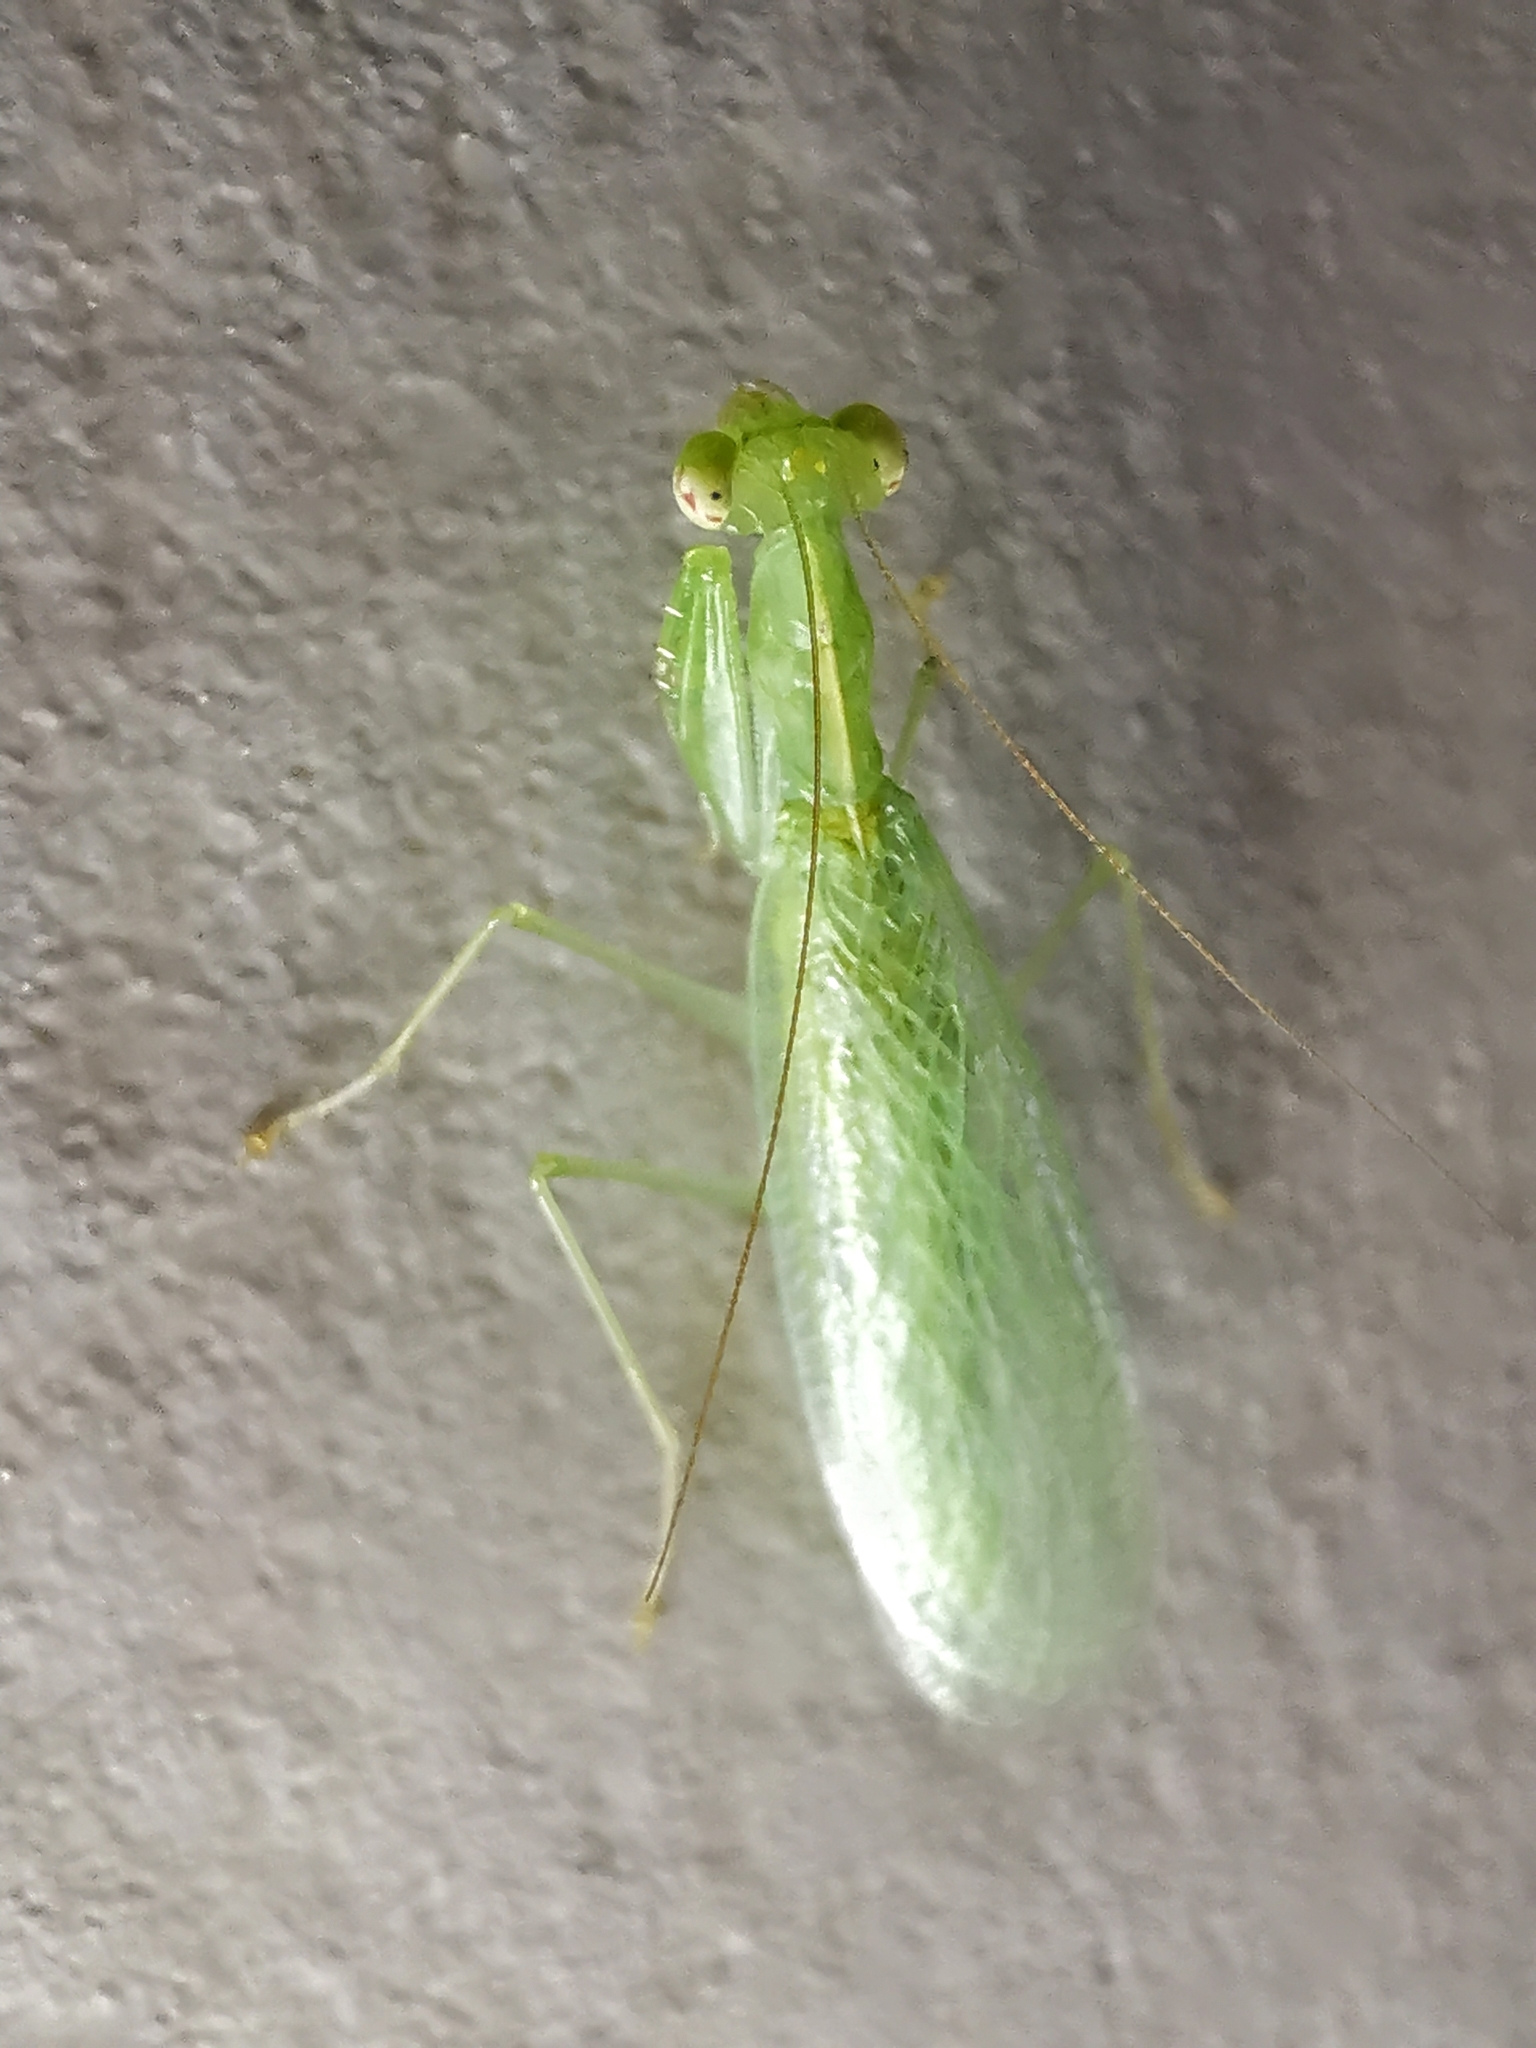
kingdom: Animalia
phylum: Arthropoda
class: Insecta
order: Mantodea
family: Nanomantidae
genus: Tropidomantis
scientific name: Tropidomantis tenera
